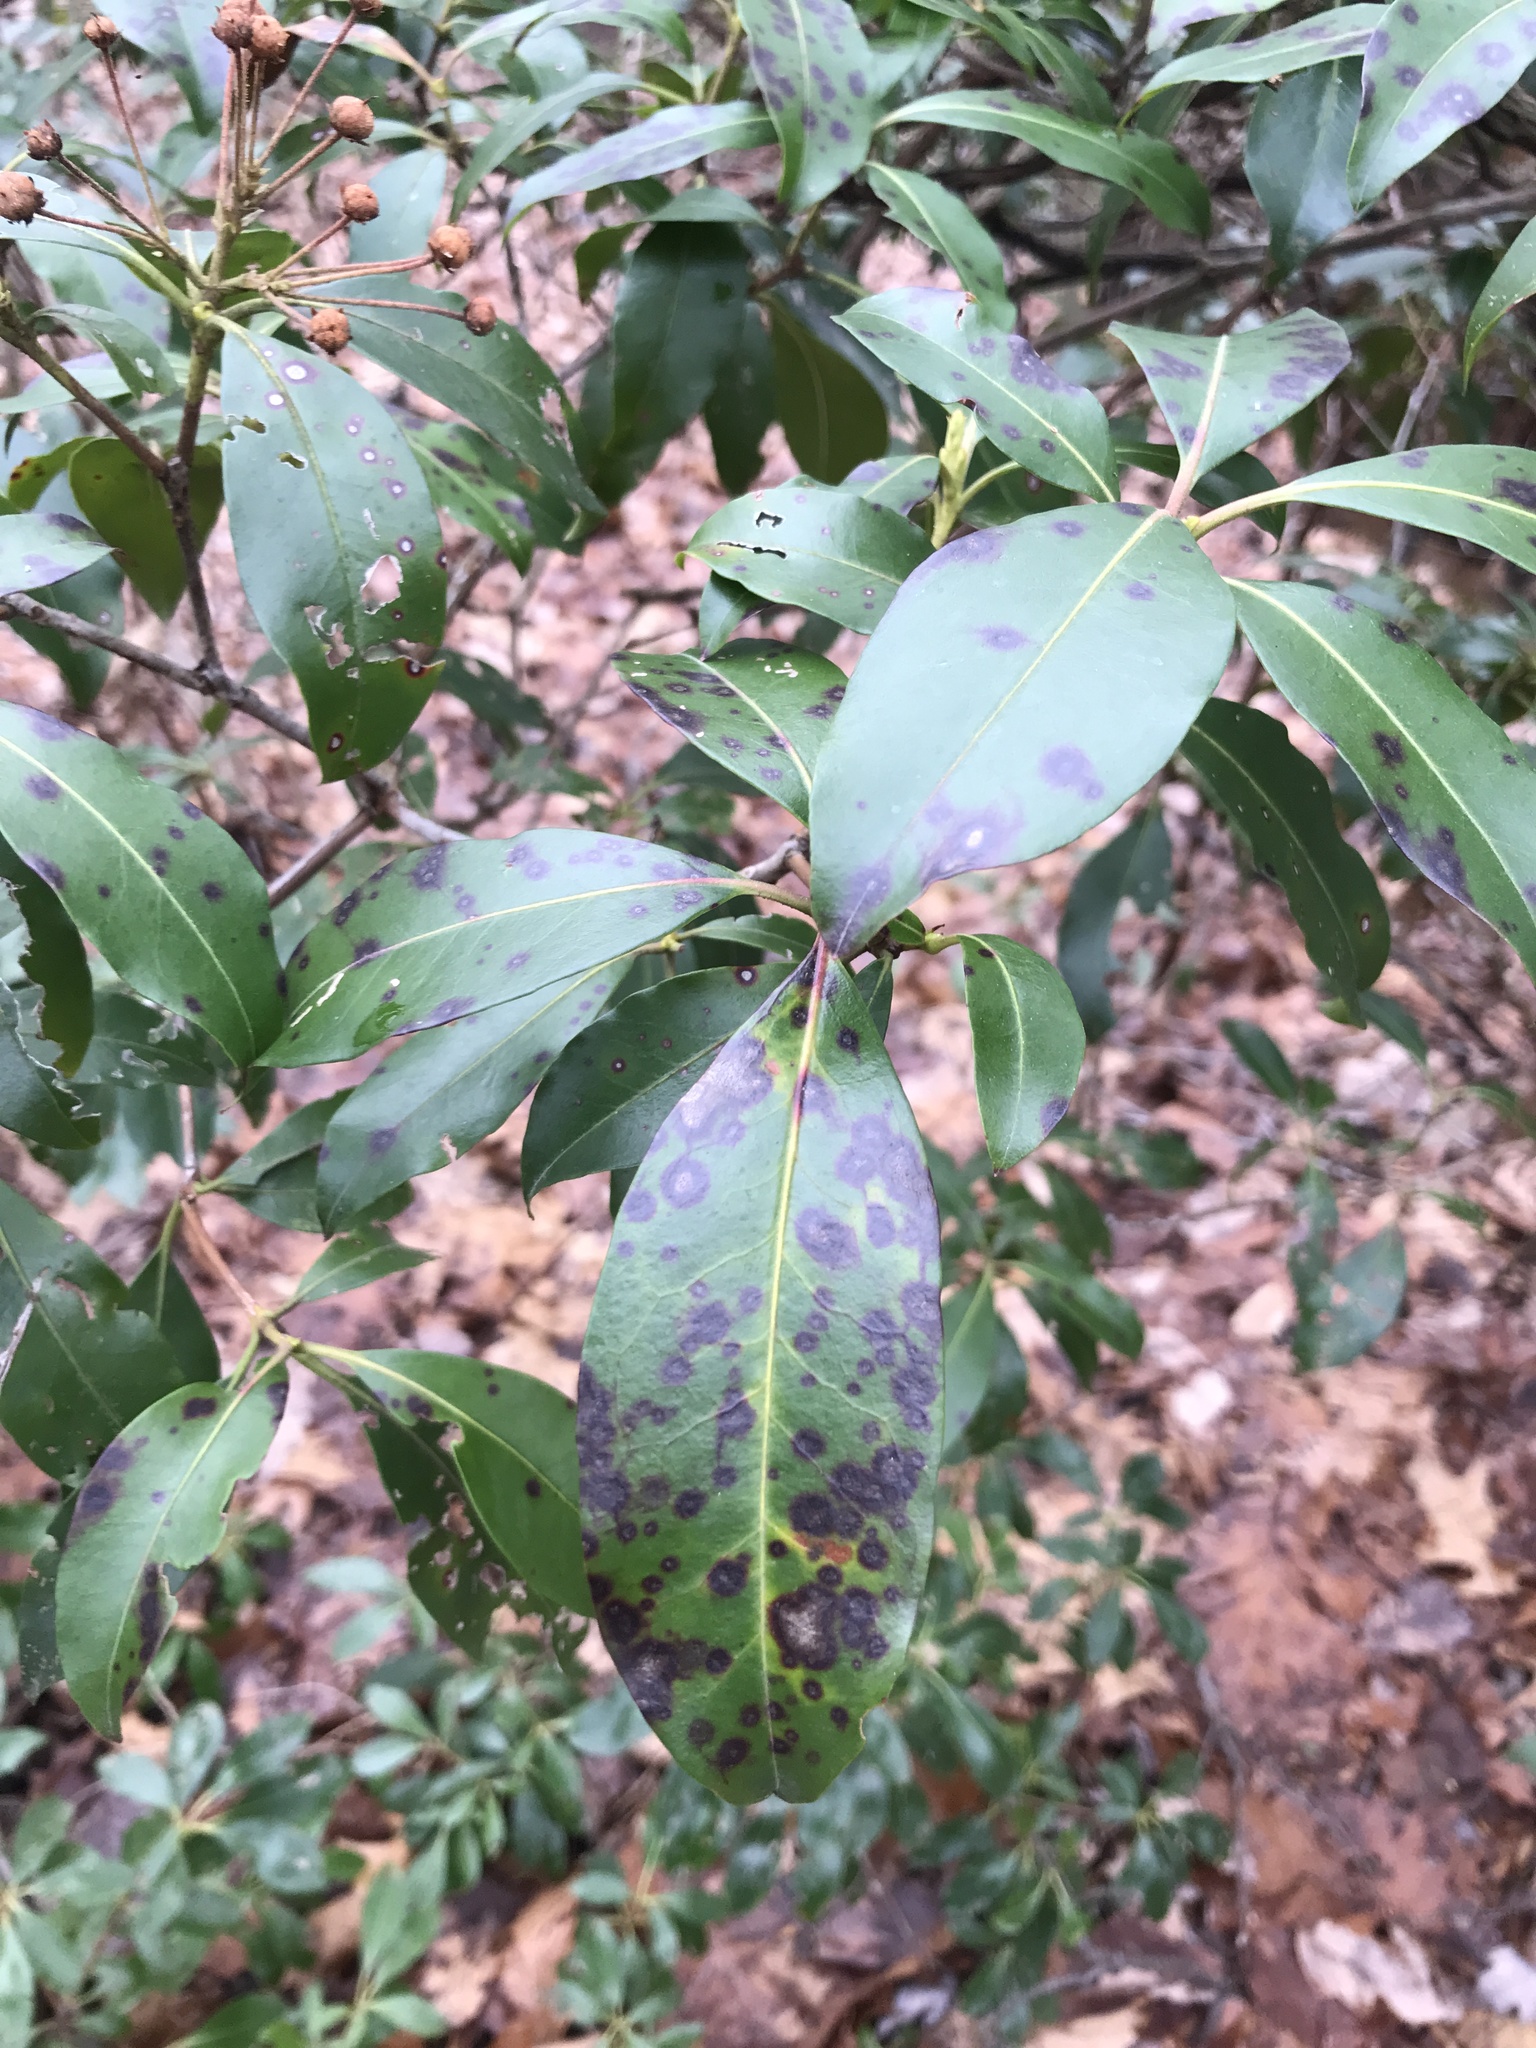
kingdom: Fungi
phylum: Ascomycota
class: Sordariomycetes
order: Diaporthales
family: Diaporthaceae
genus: Diaporthe
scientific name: Diaporthe kalmiae
